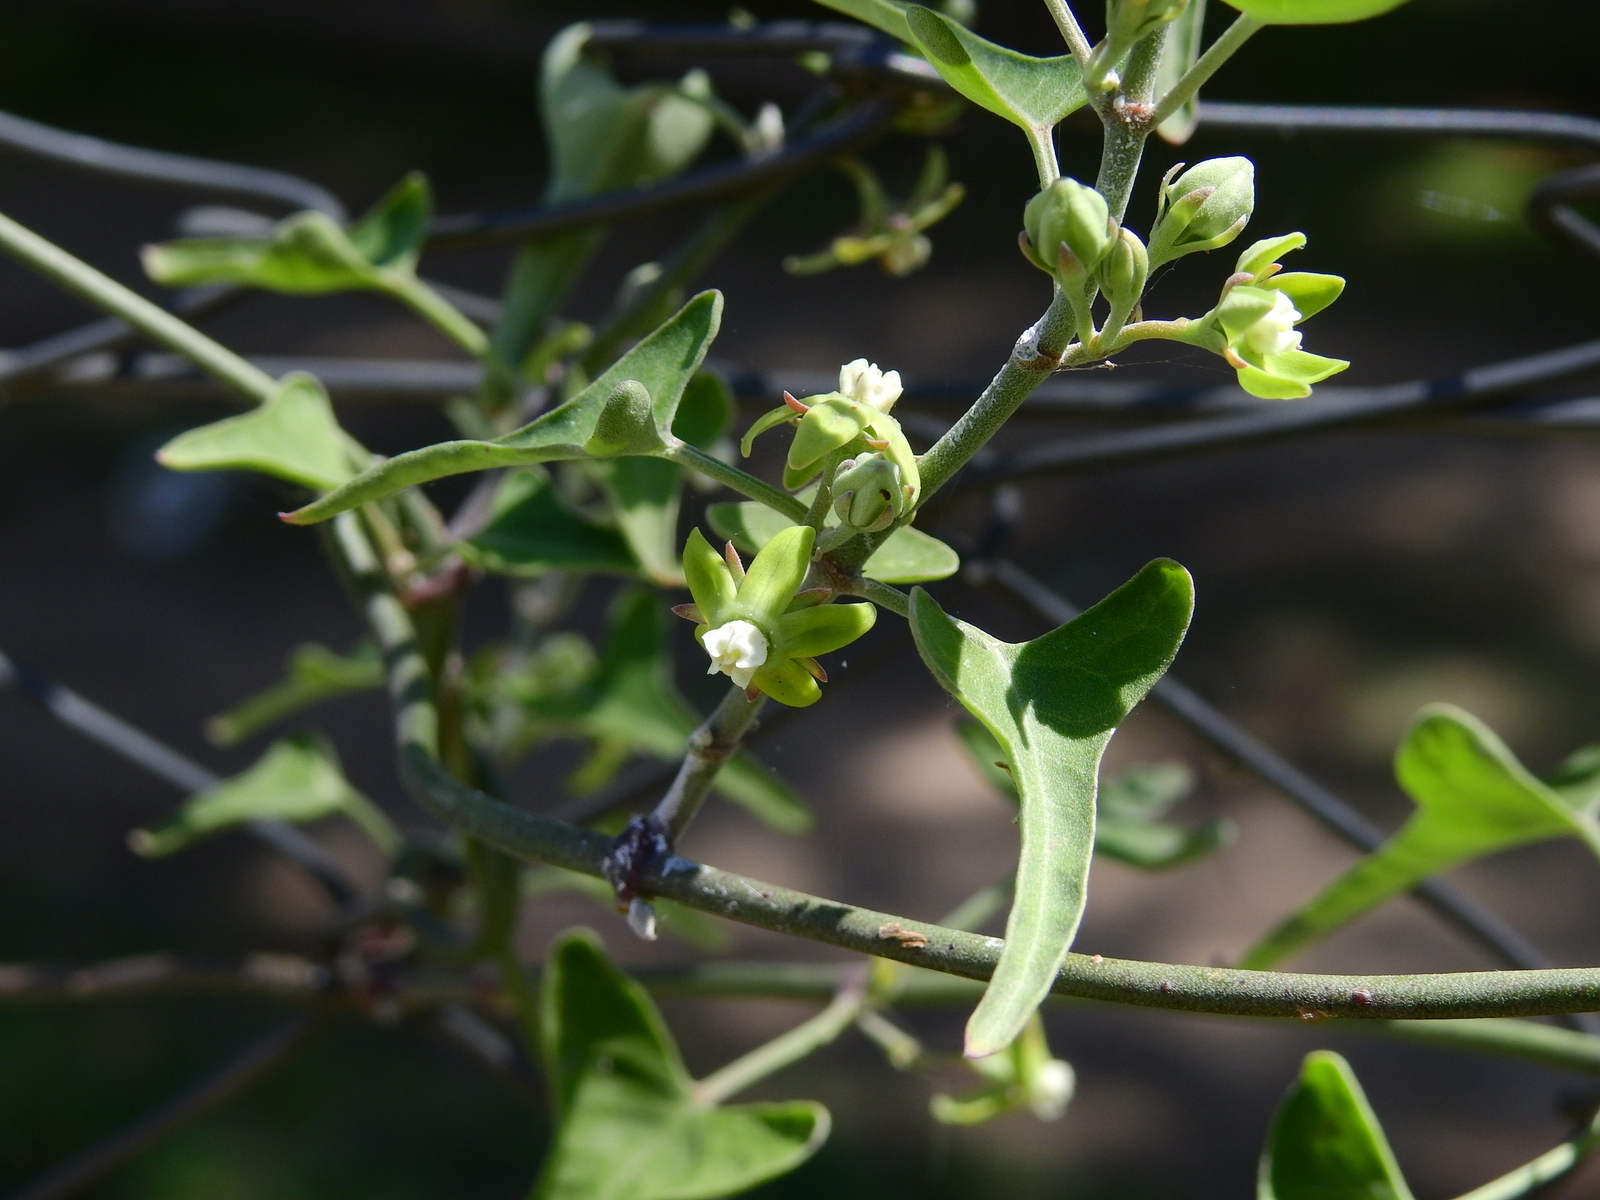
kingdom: Plantae
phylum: Tracheophyta
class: Magnoliopsida
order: Gentianales
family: Apocynaceae
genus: Araujia
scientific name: Araujia brachystephana
